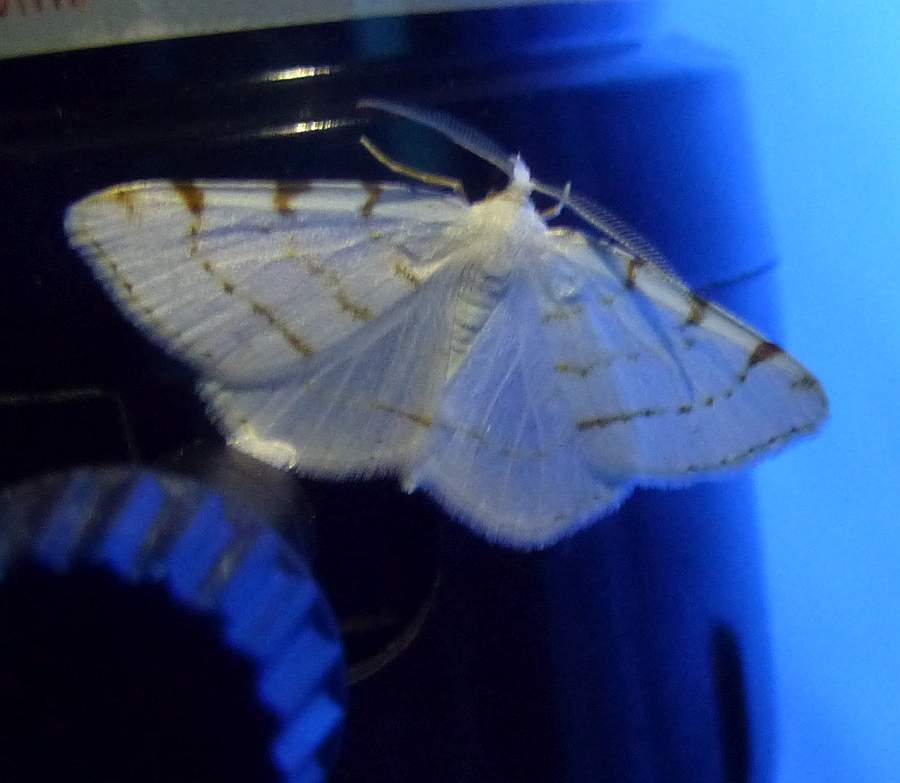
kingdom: Animalia
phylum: Arthropoda
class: Insecta
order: Lepidoptera
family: Geometridae
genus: Macaria
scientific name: Macaria pustularia
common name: Lesser maple spanworm moth
